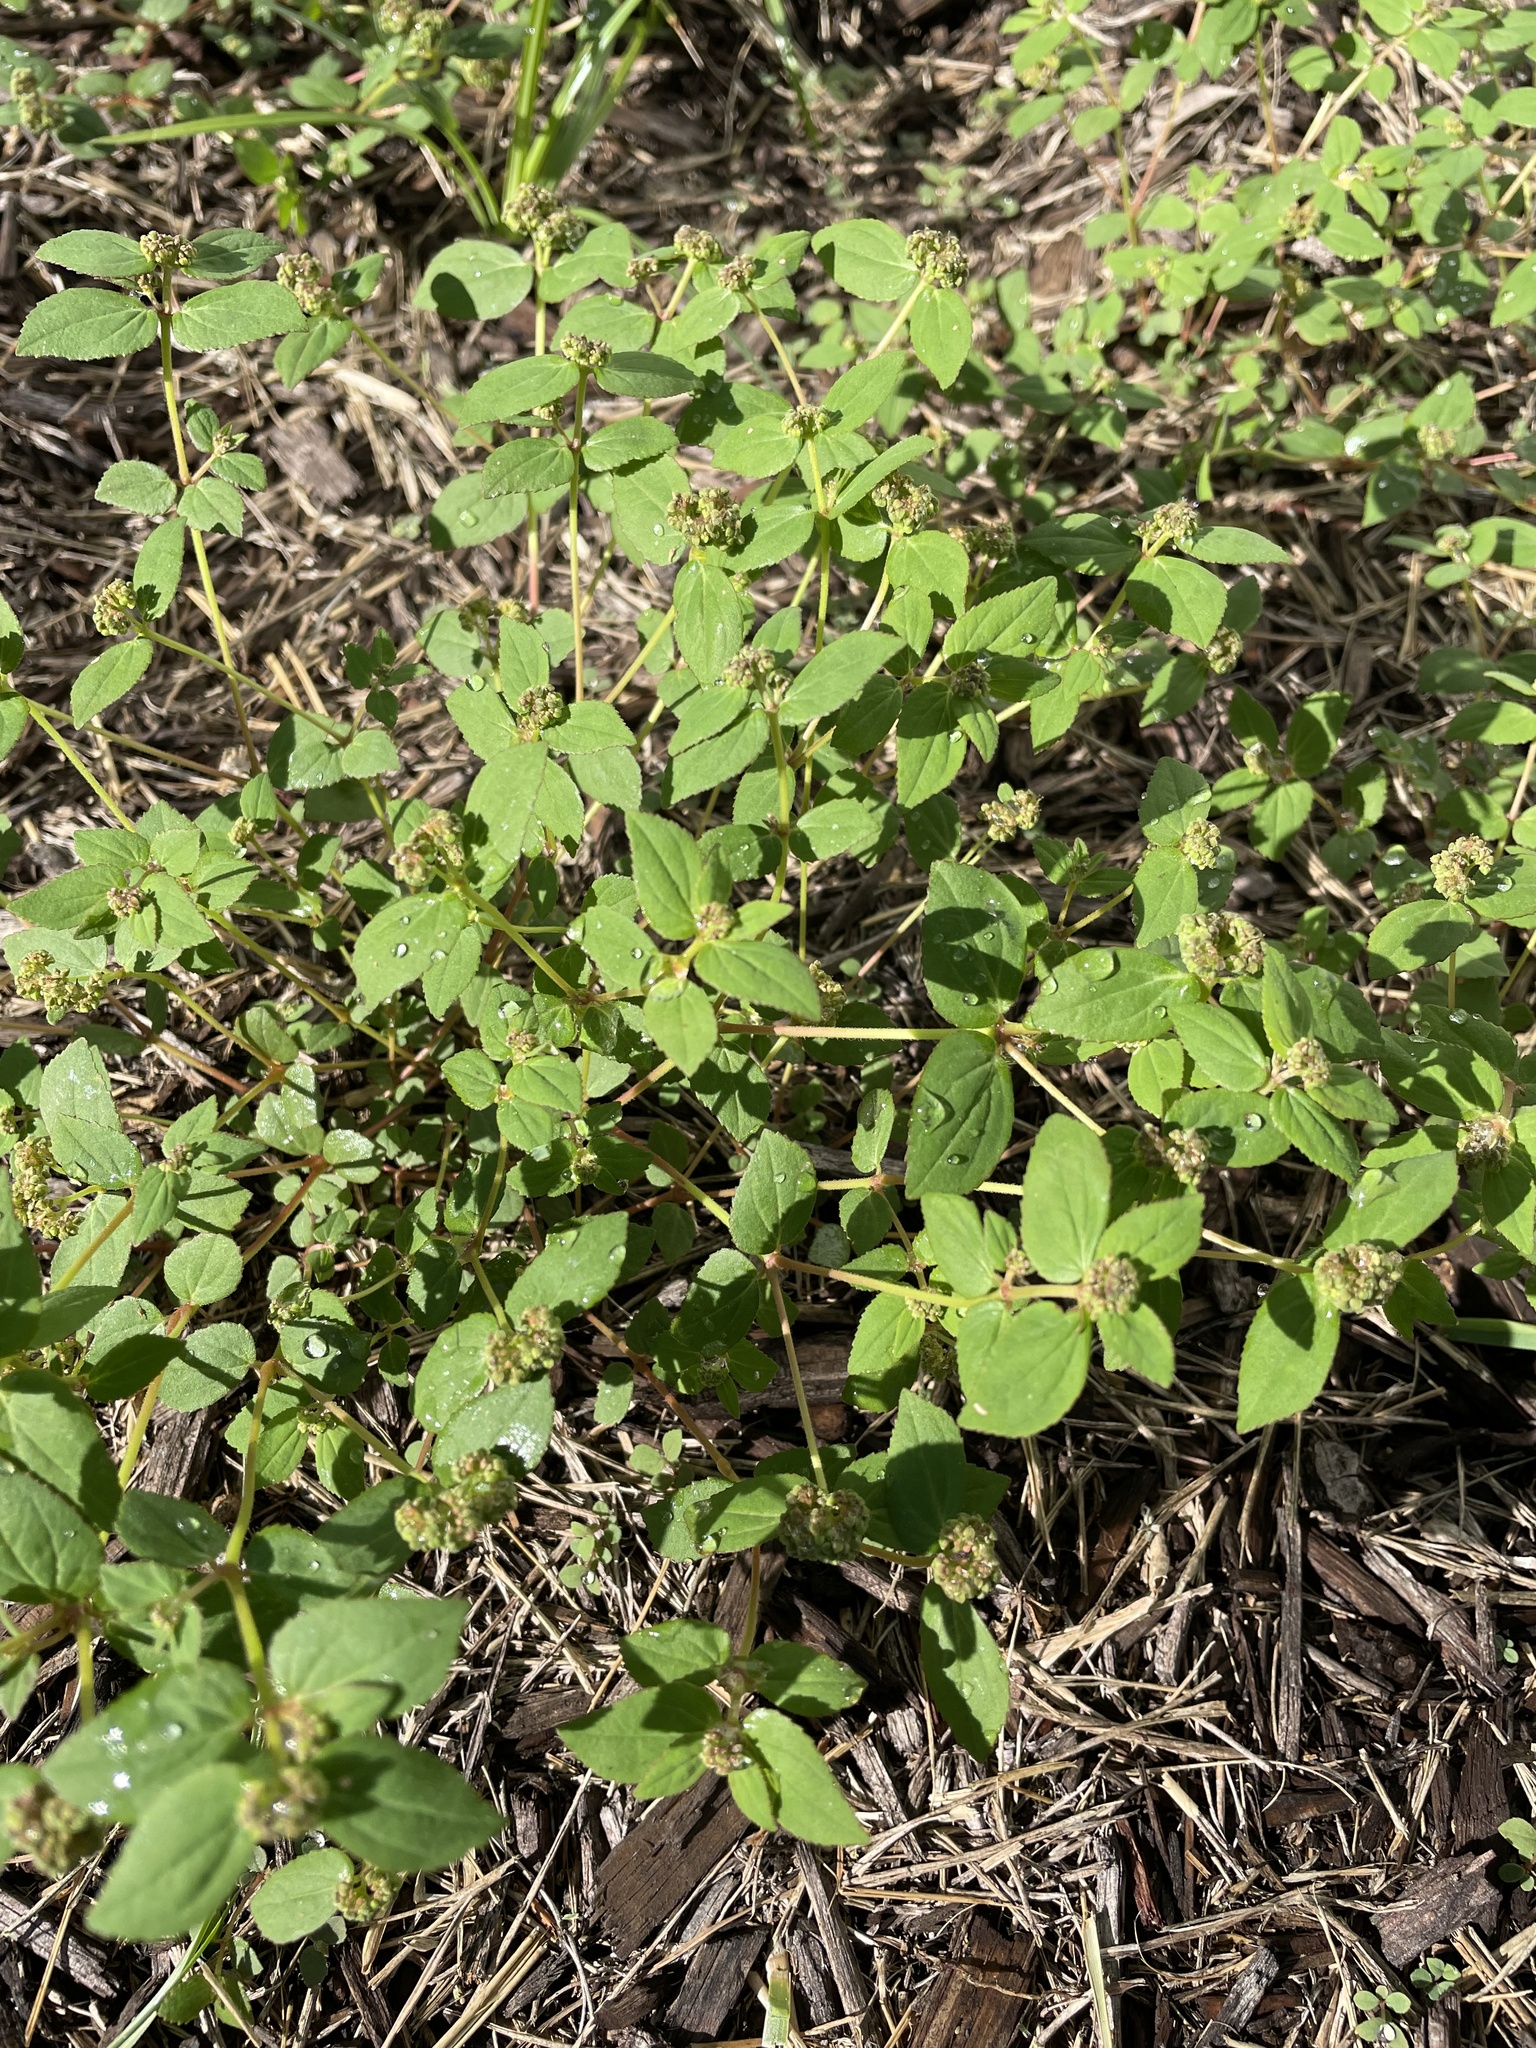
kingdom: Plantae
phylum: Tracheophyta
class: Magnoliopsida
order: Malpighiales
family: Euphorbiaceae
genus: Euphorbia
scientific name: Euphorbia ophthalmica
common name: Florida hammock sandmat
